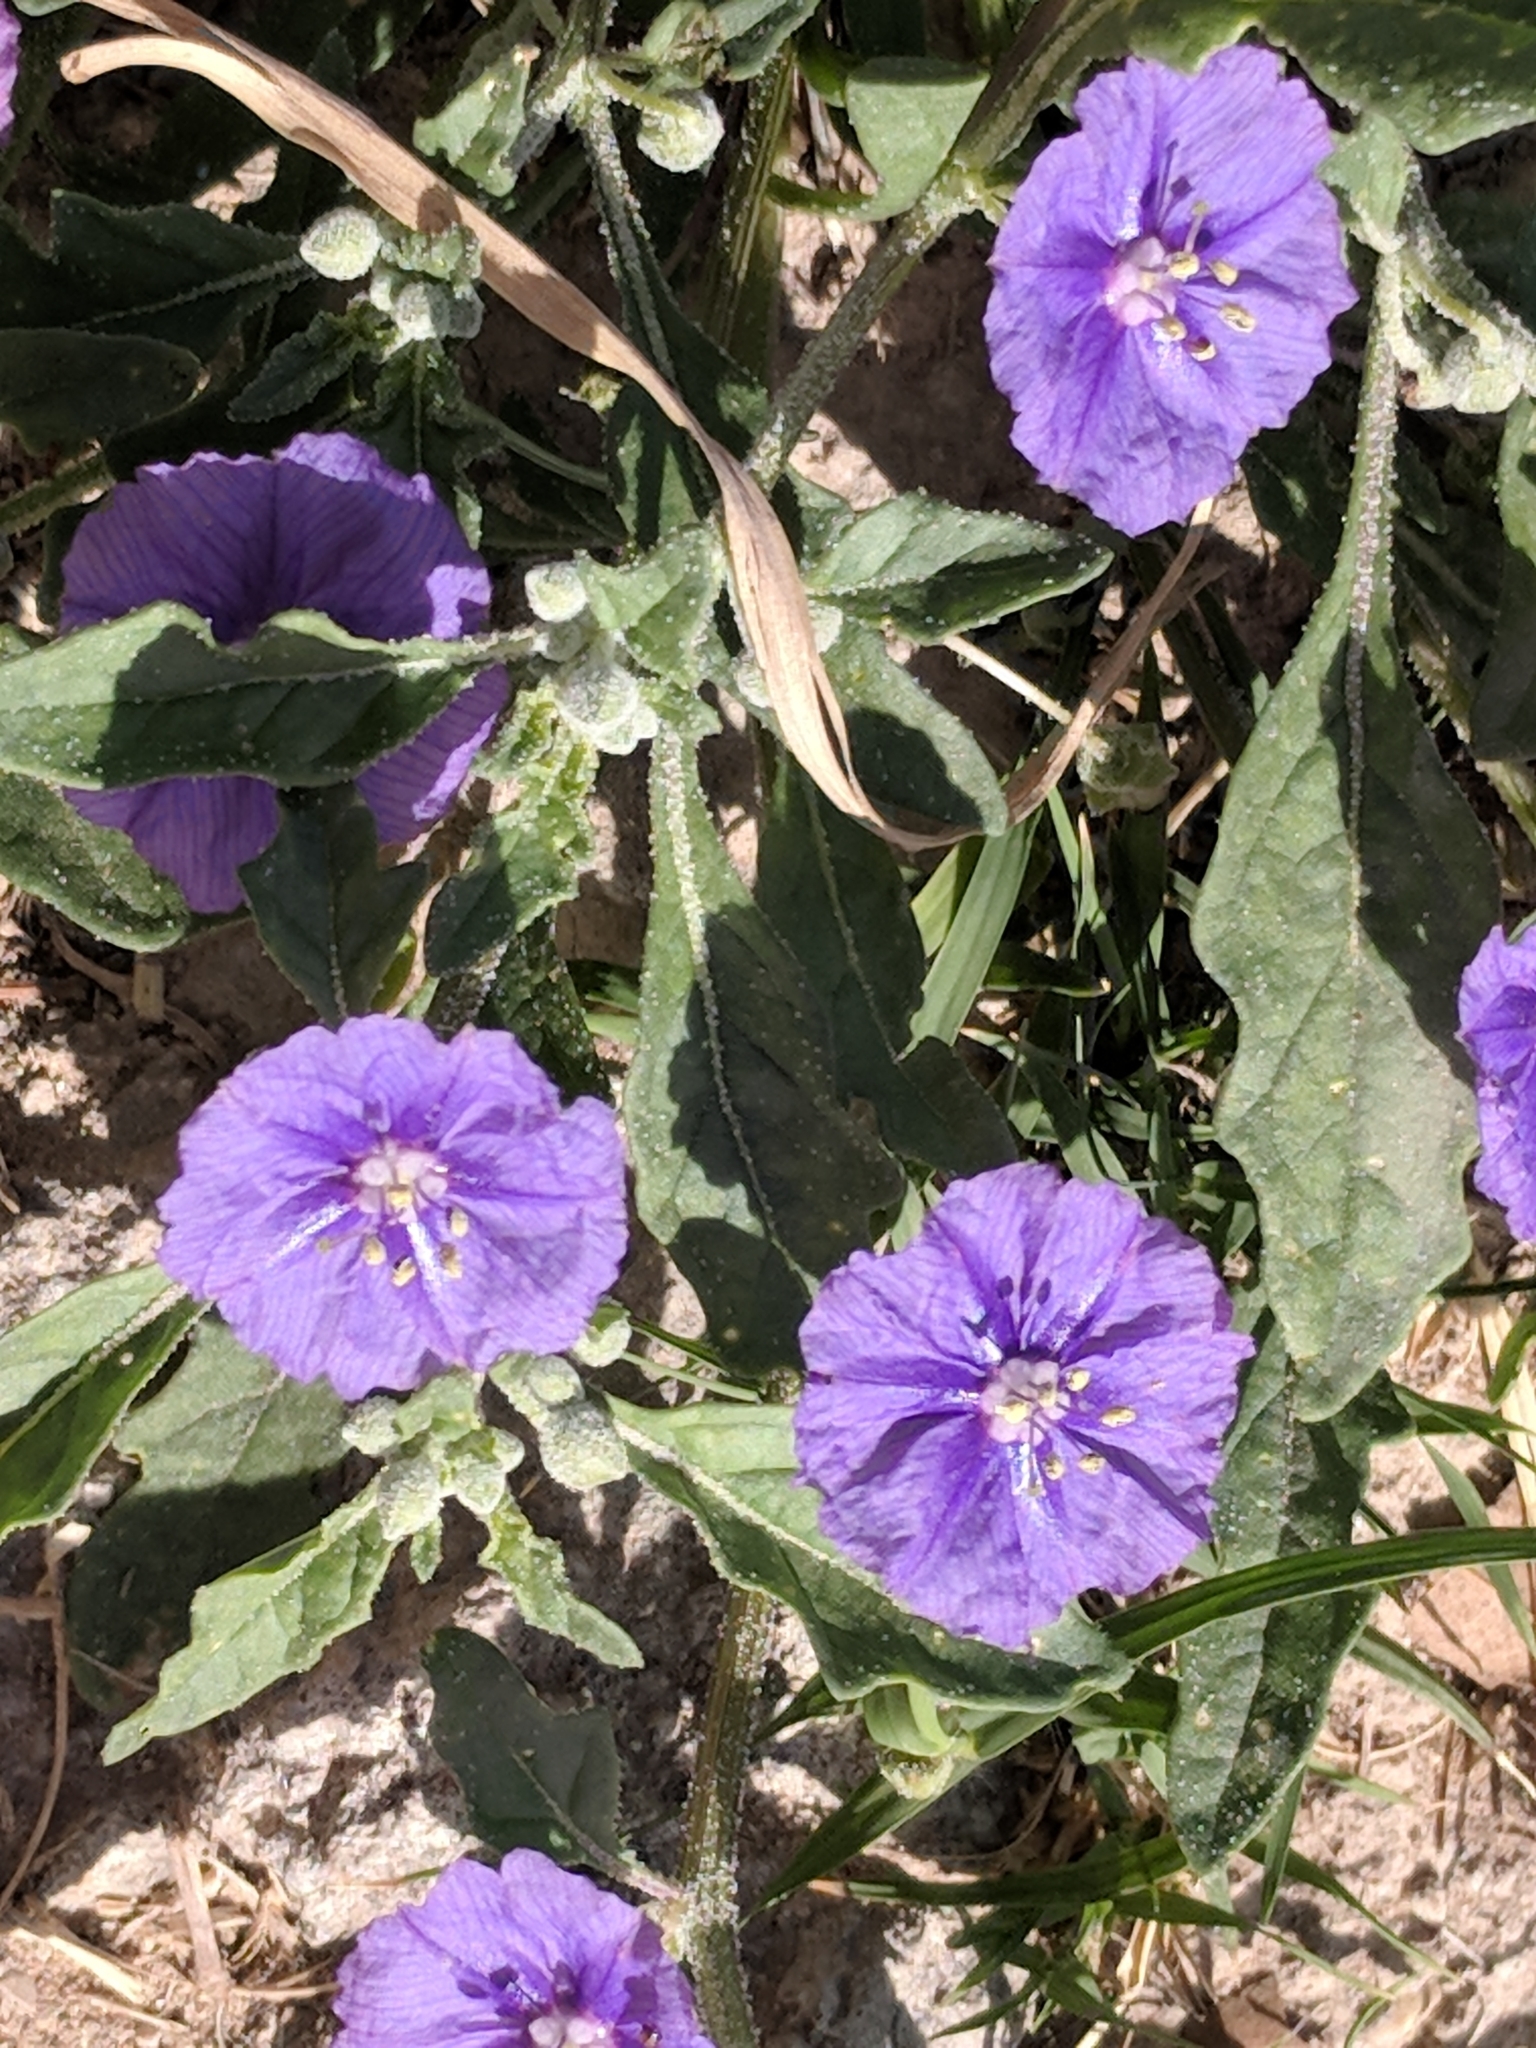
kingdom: Plantae
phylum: Tracheophyta
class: Magnoliopsida
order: Solanales
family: Solanaceae
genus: Quincula
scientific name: Quincula lobata
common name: Purple-ground-cherry
